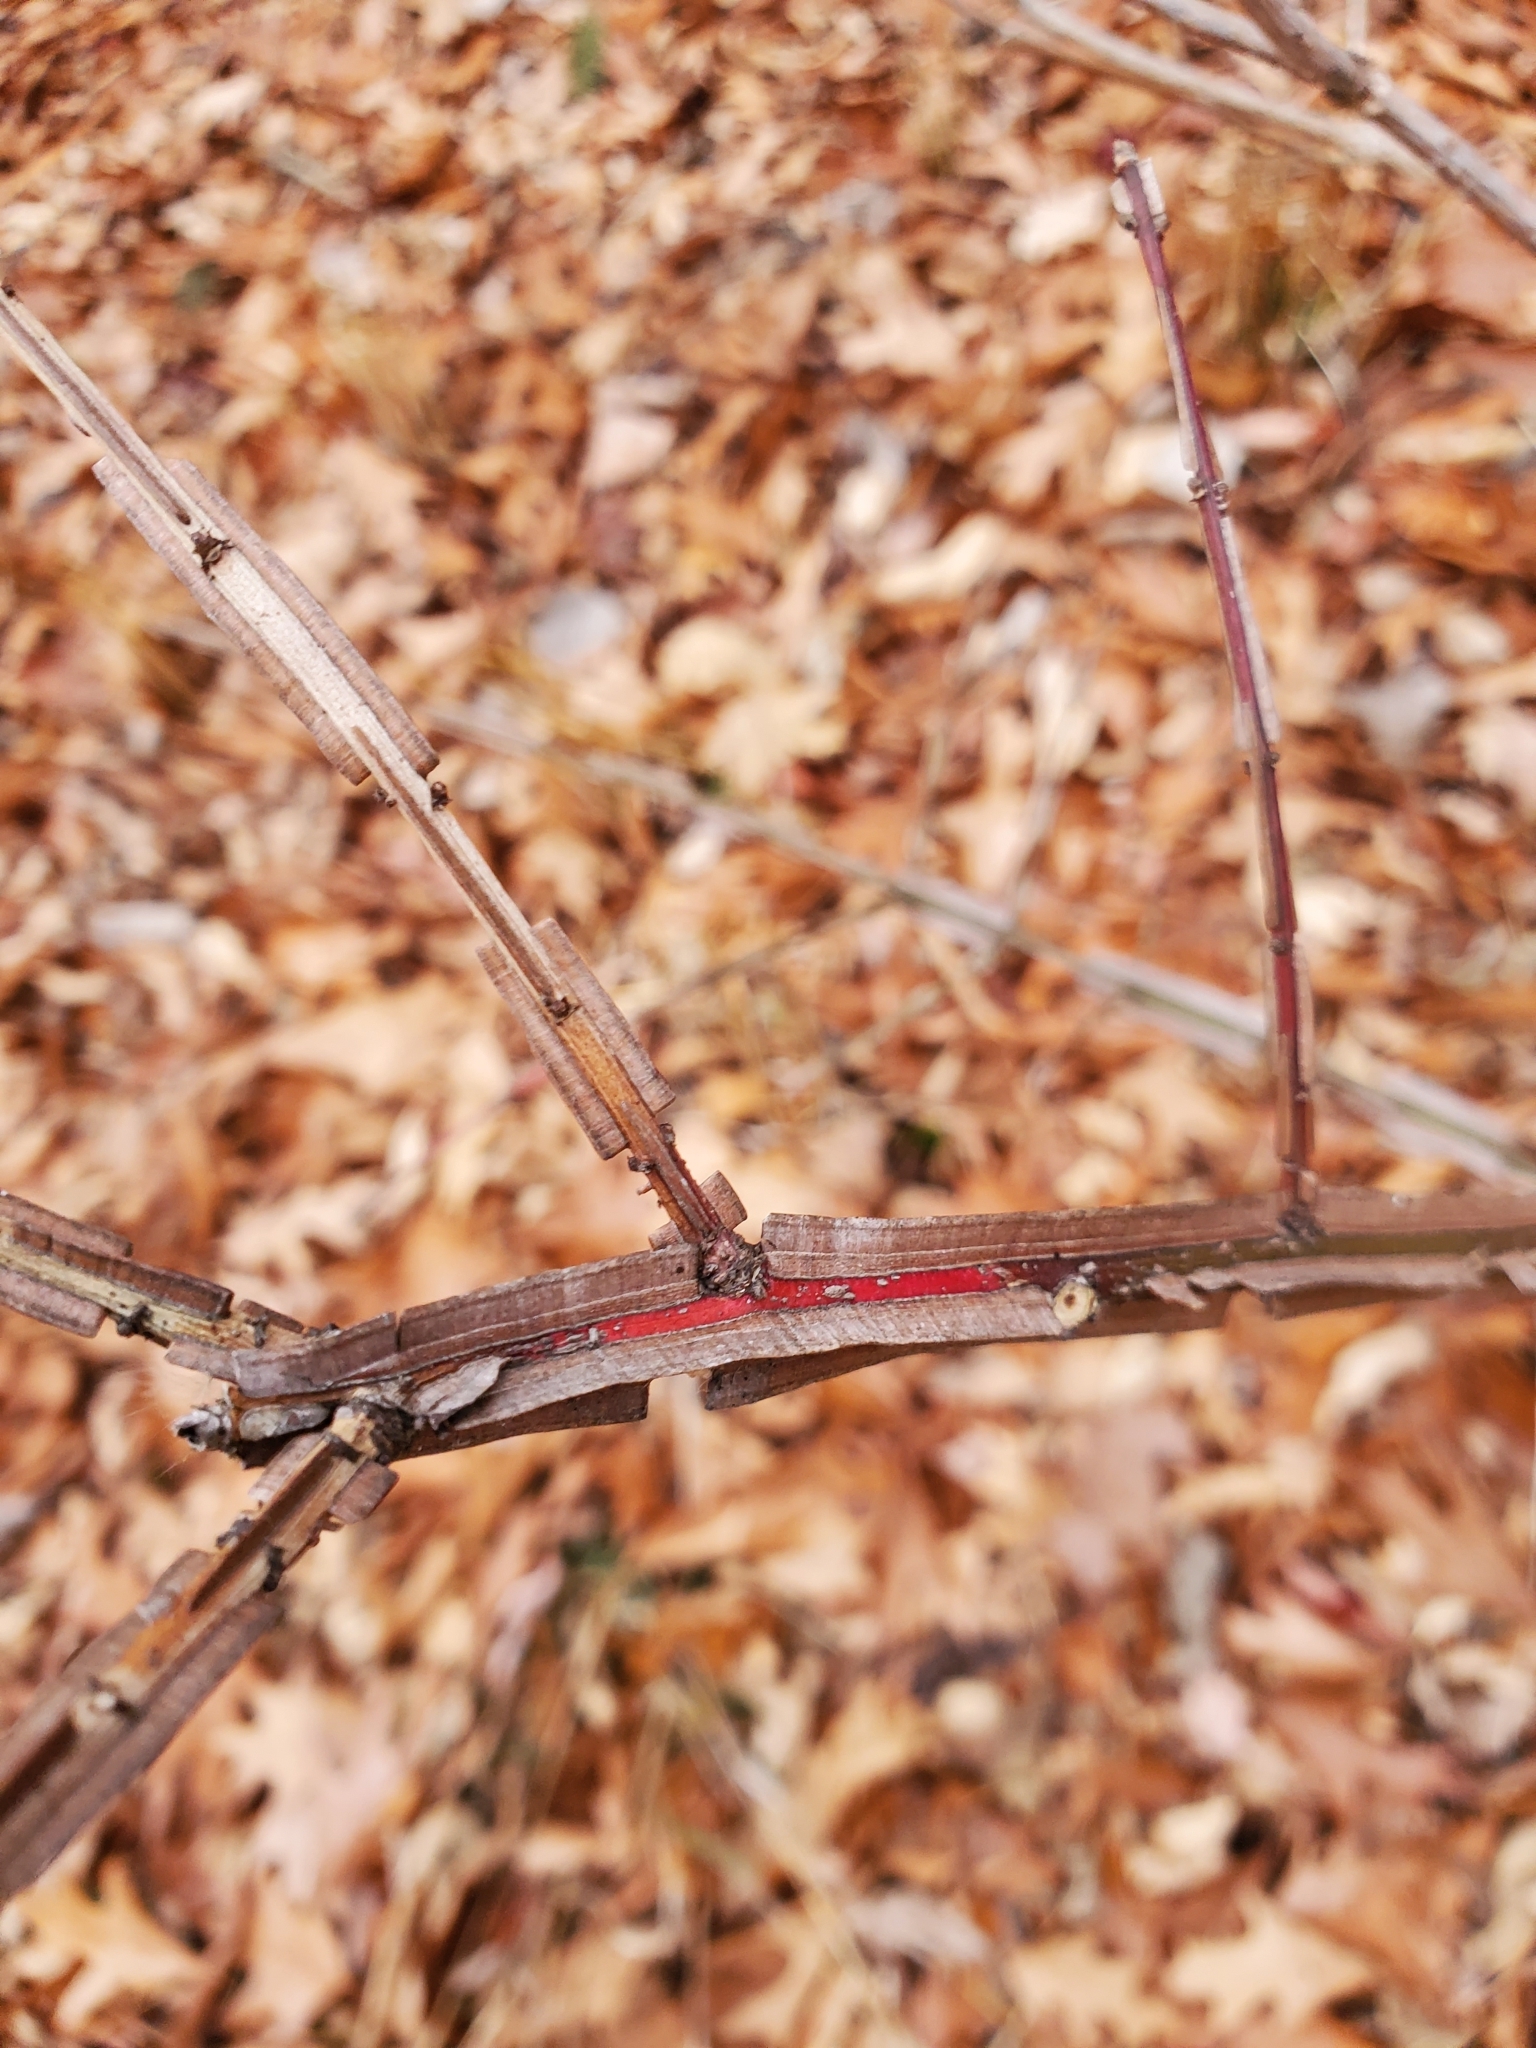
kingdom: Plantae
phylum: Tracheophyta
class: Magnoliopsida
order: Celastrales
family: Celastraceae
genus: Euonymus
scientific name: Euonymus alatus
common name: Winged euonymus
